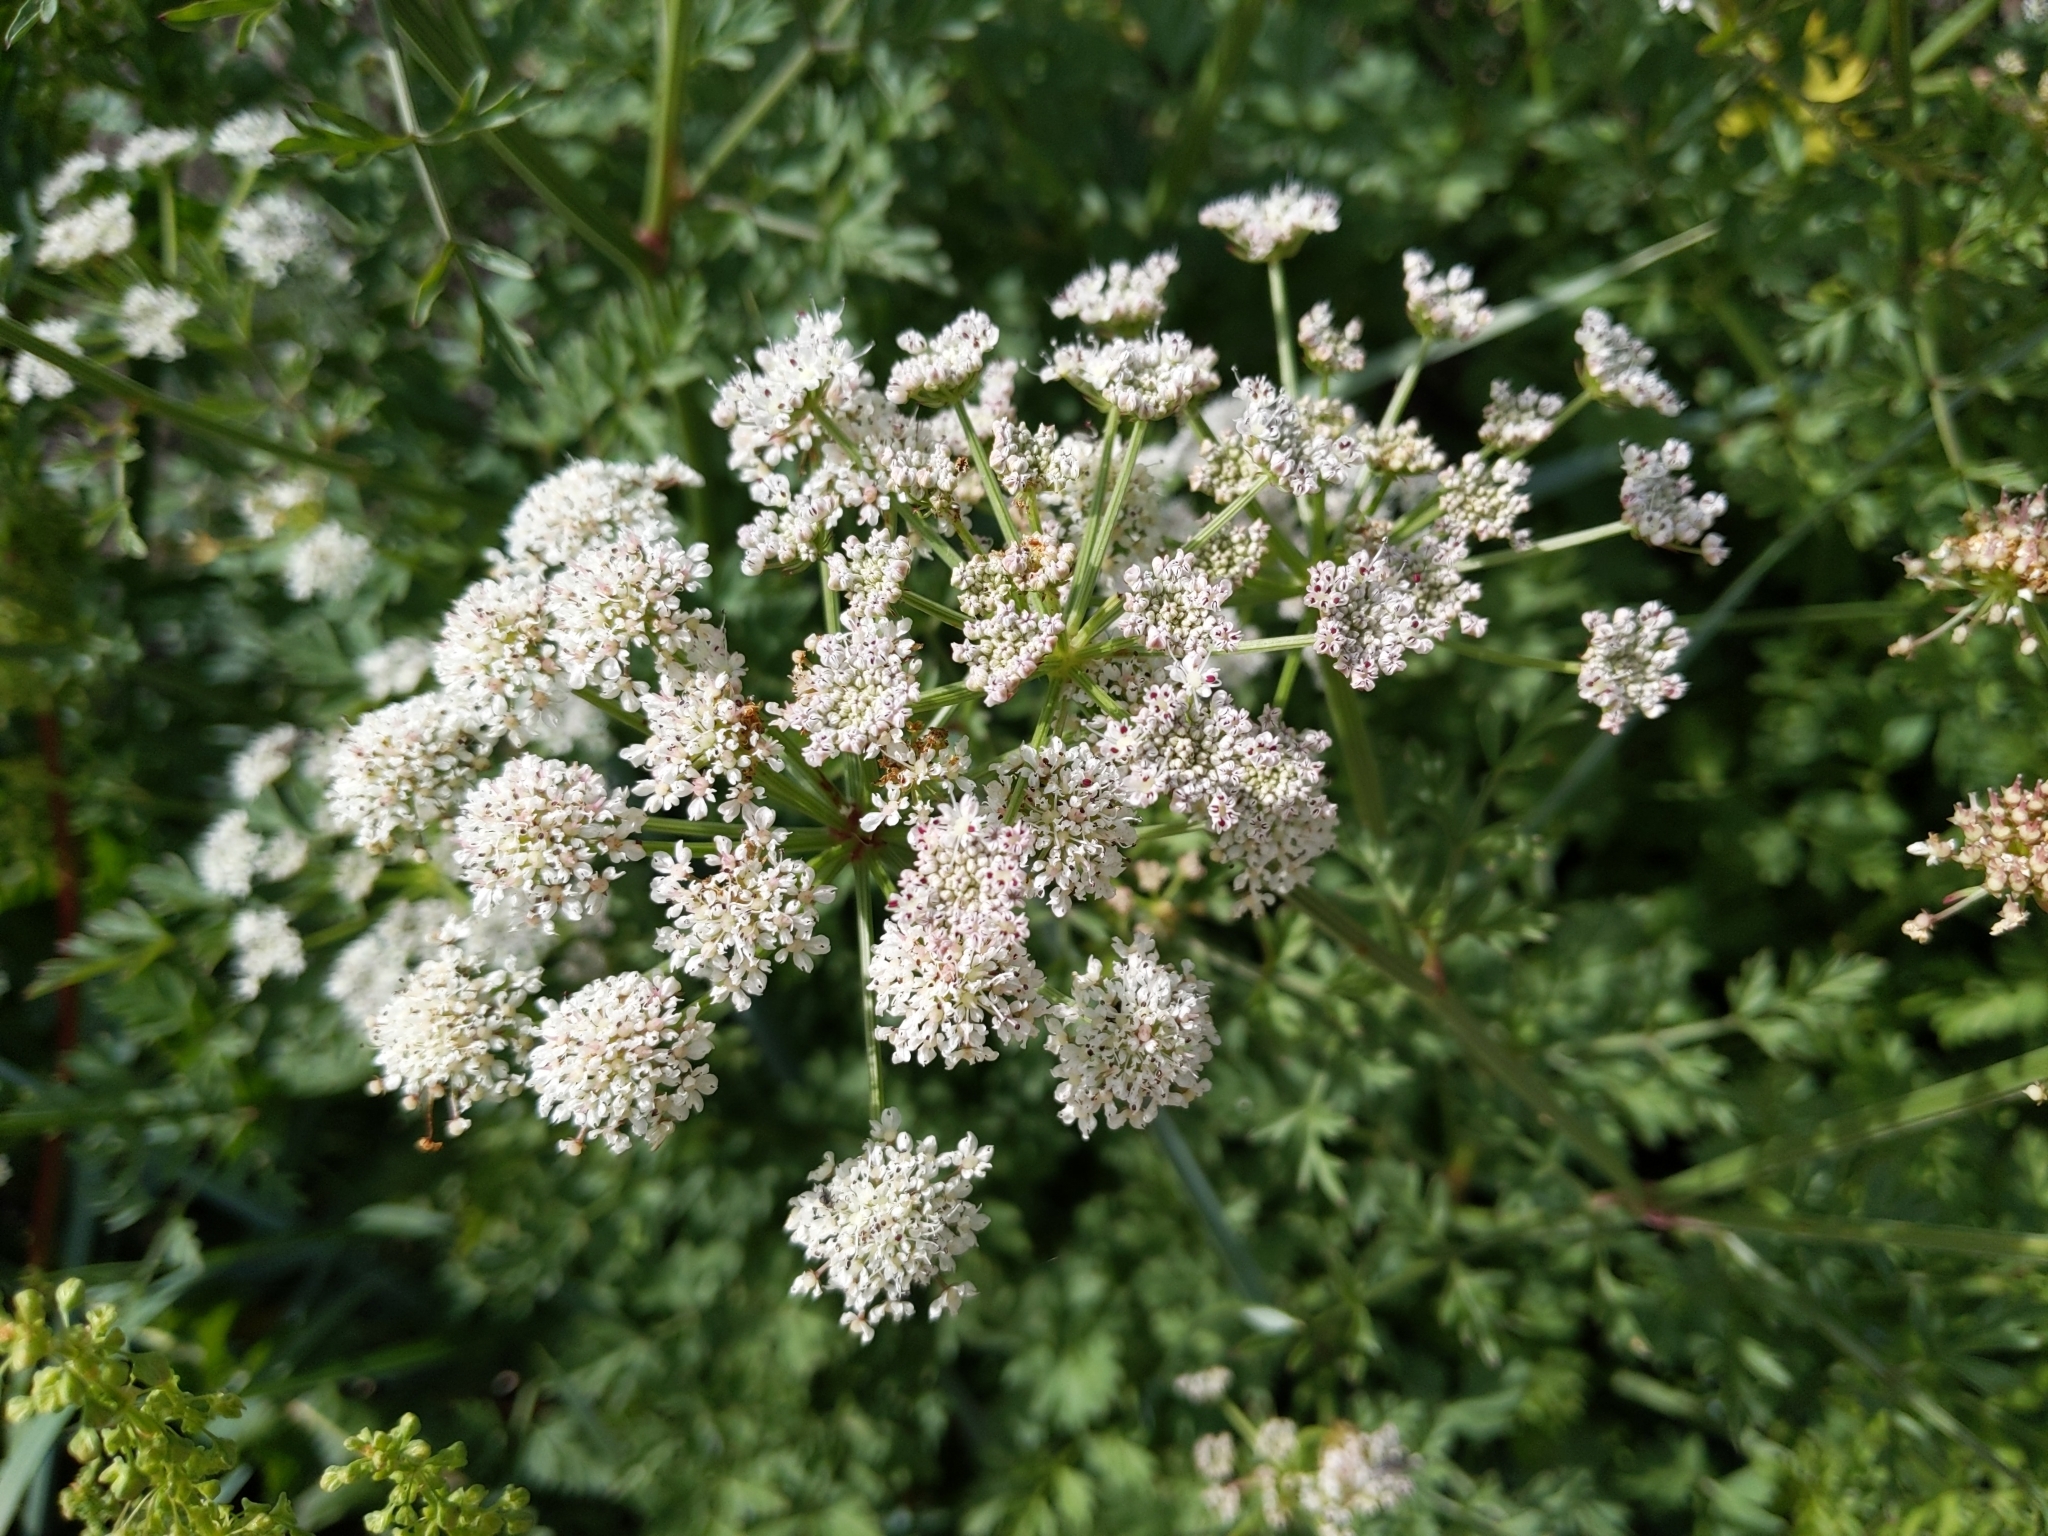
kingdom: Plantae
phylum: Tracheophyta
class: Magnoliopsida
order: Apiales
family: Apiaceae
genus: Oenanthe
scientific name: Oenanthe crocata
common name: Hemlock water-dropwort
